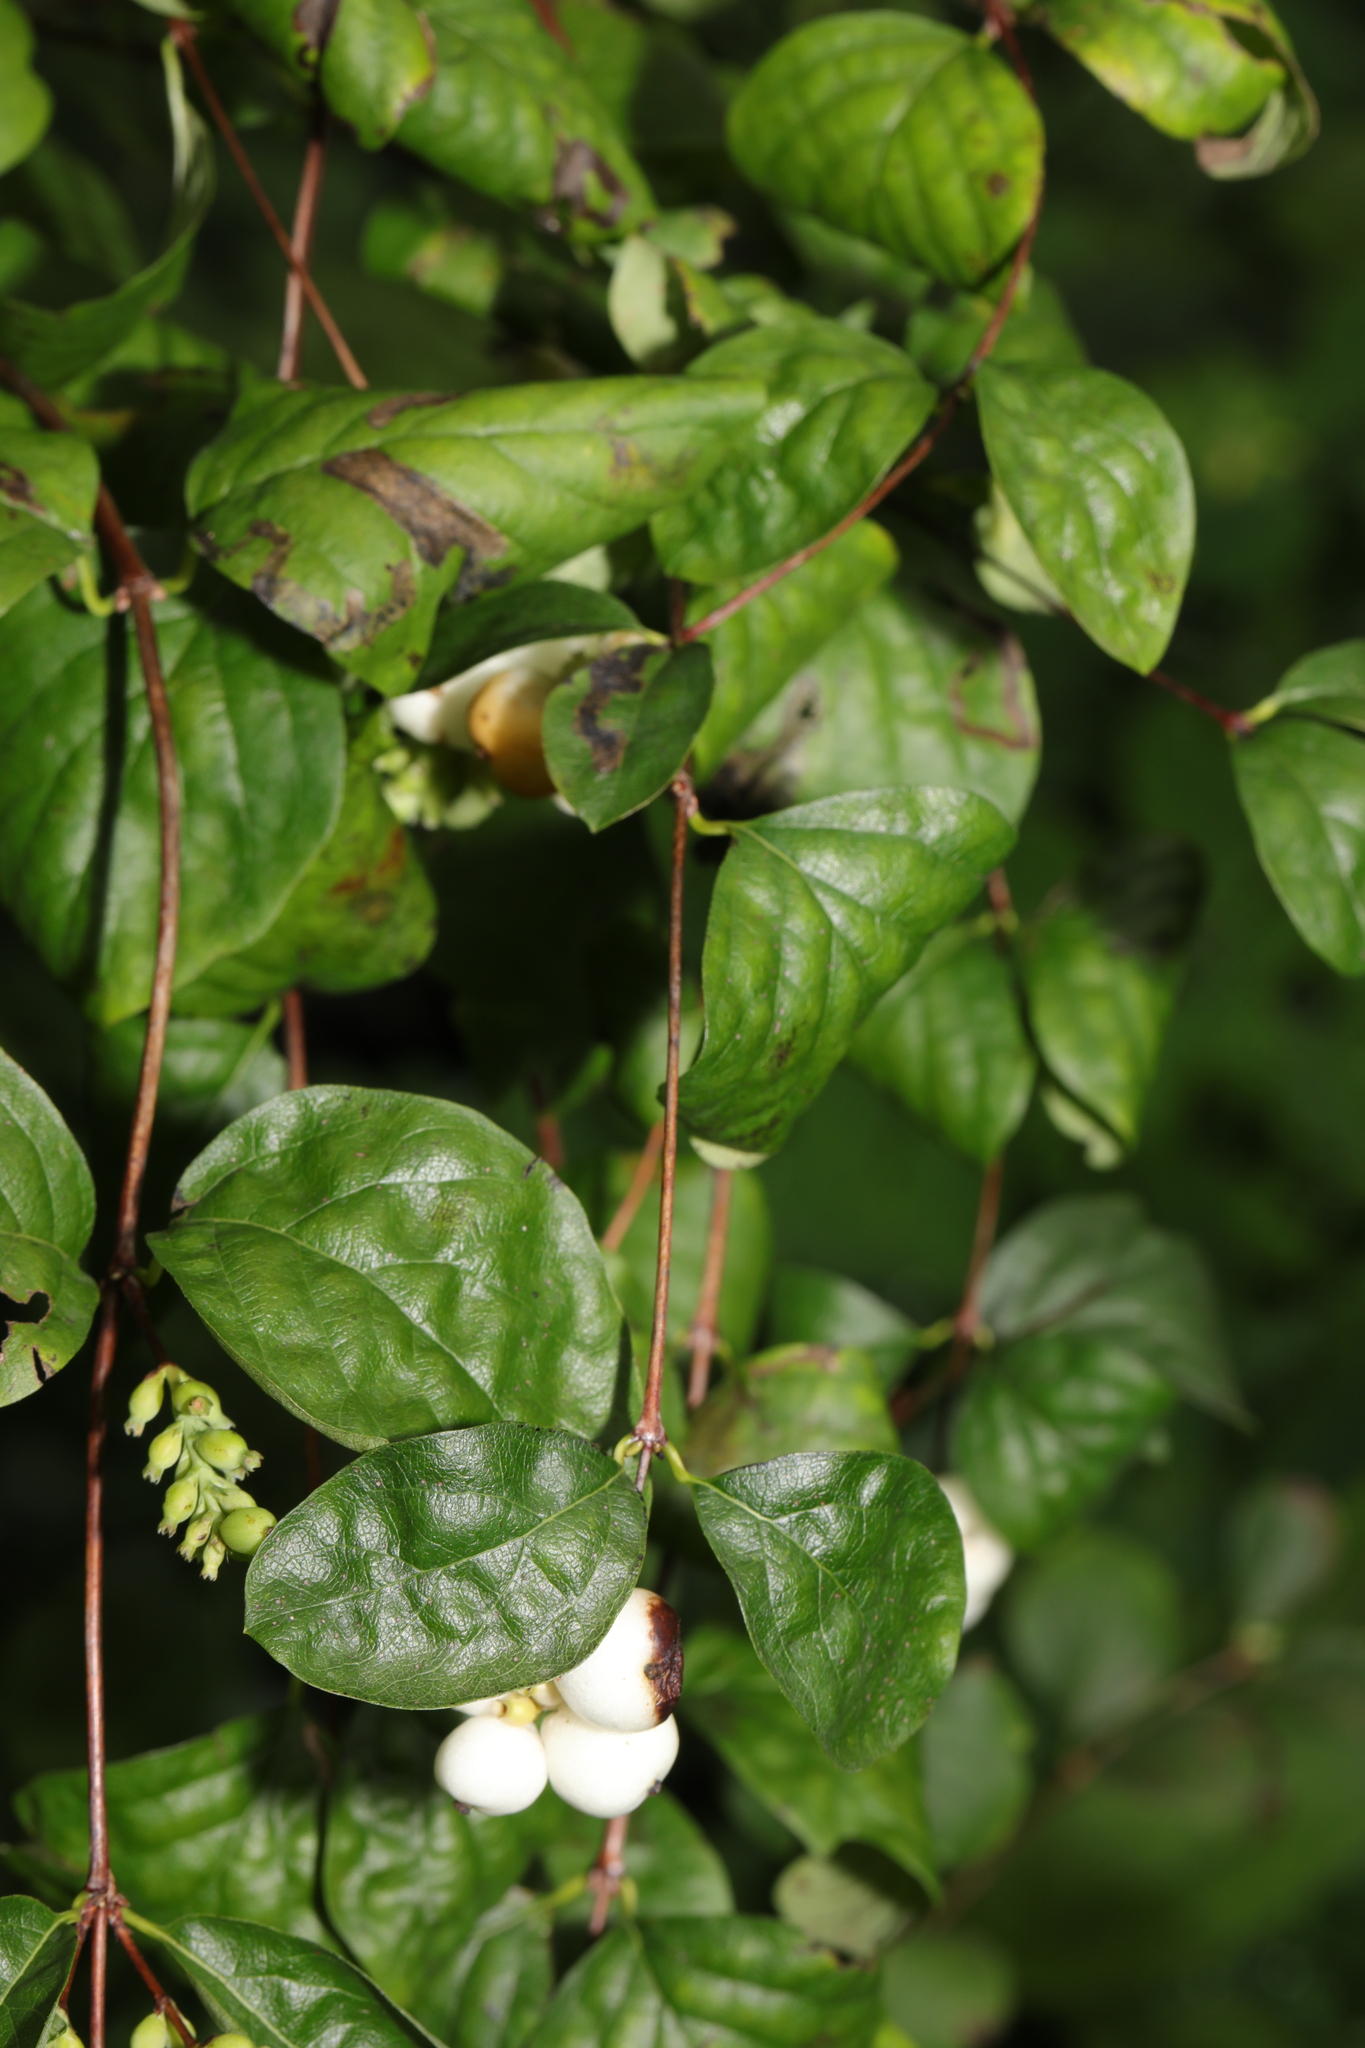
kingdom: Plantae
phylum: Tracheophyta
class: Magnoliopsida
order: Dipsacales
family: Caprifoliaceae
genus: Symphoricarpos
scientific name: Symphoricarpos albus
